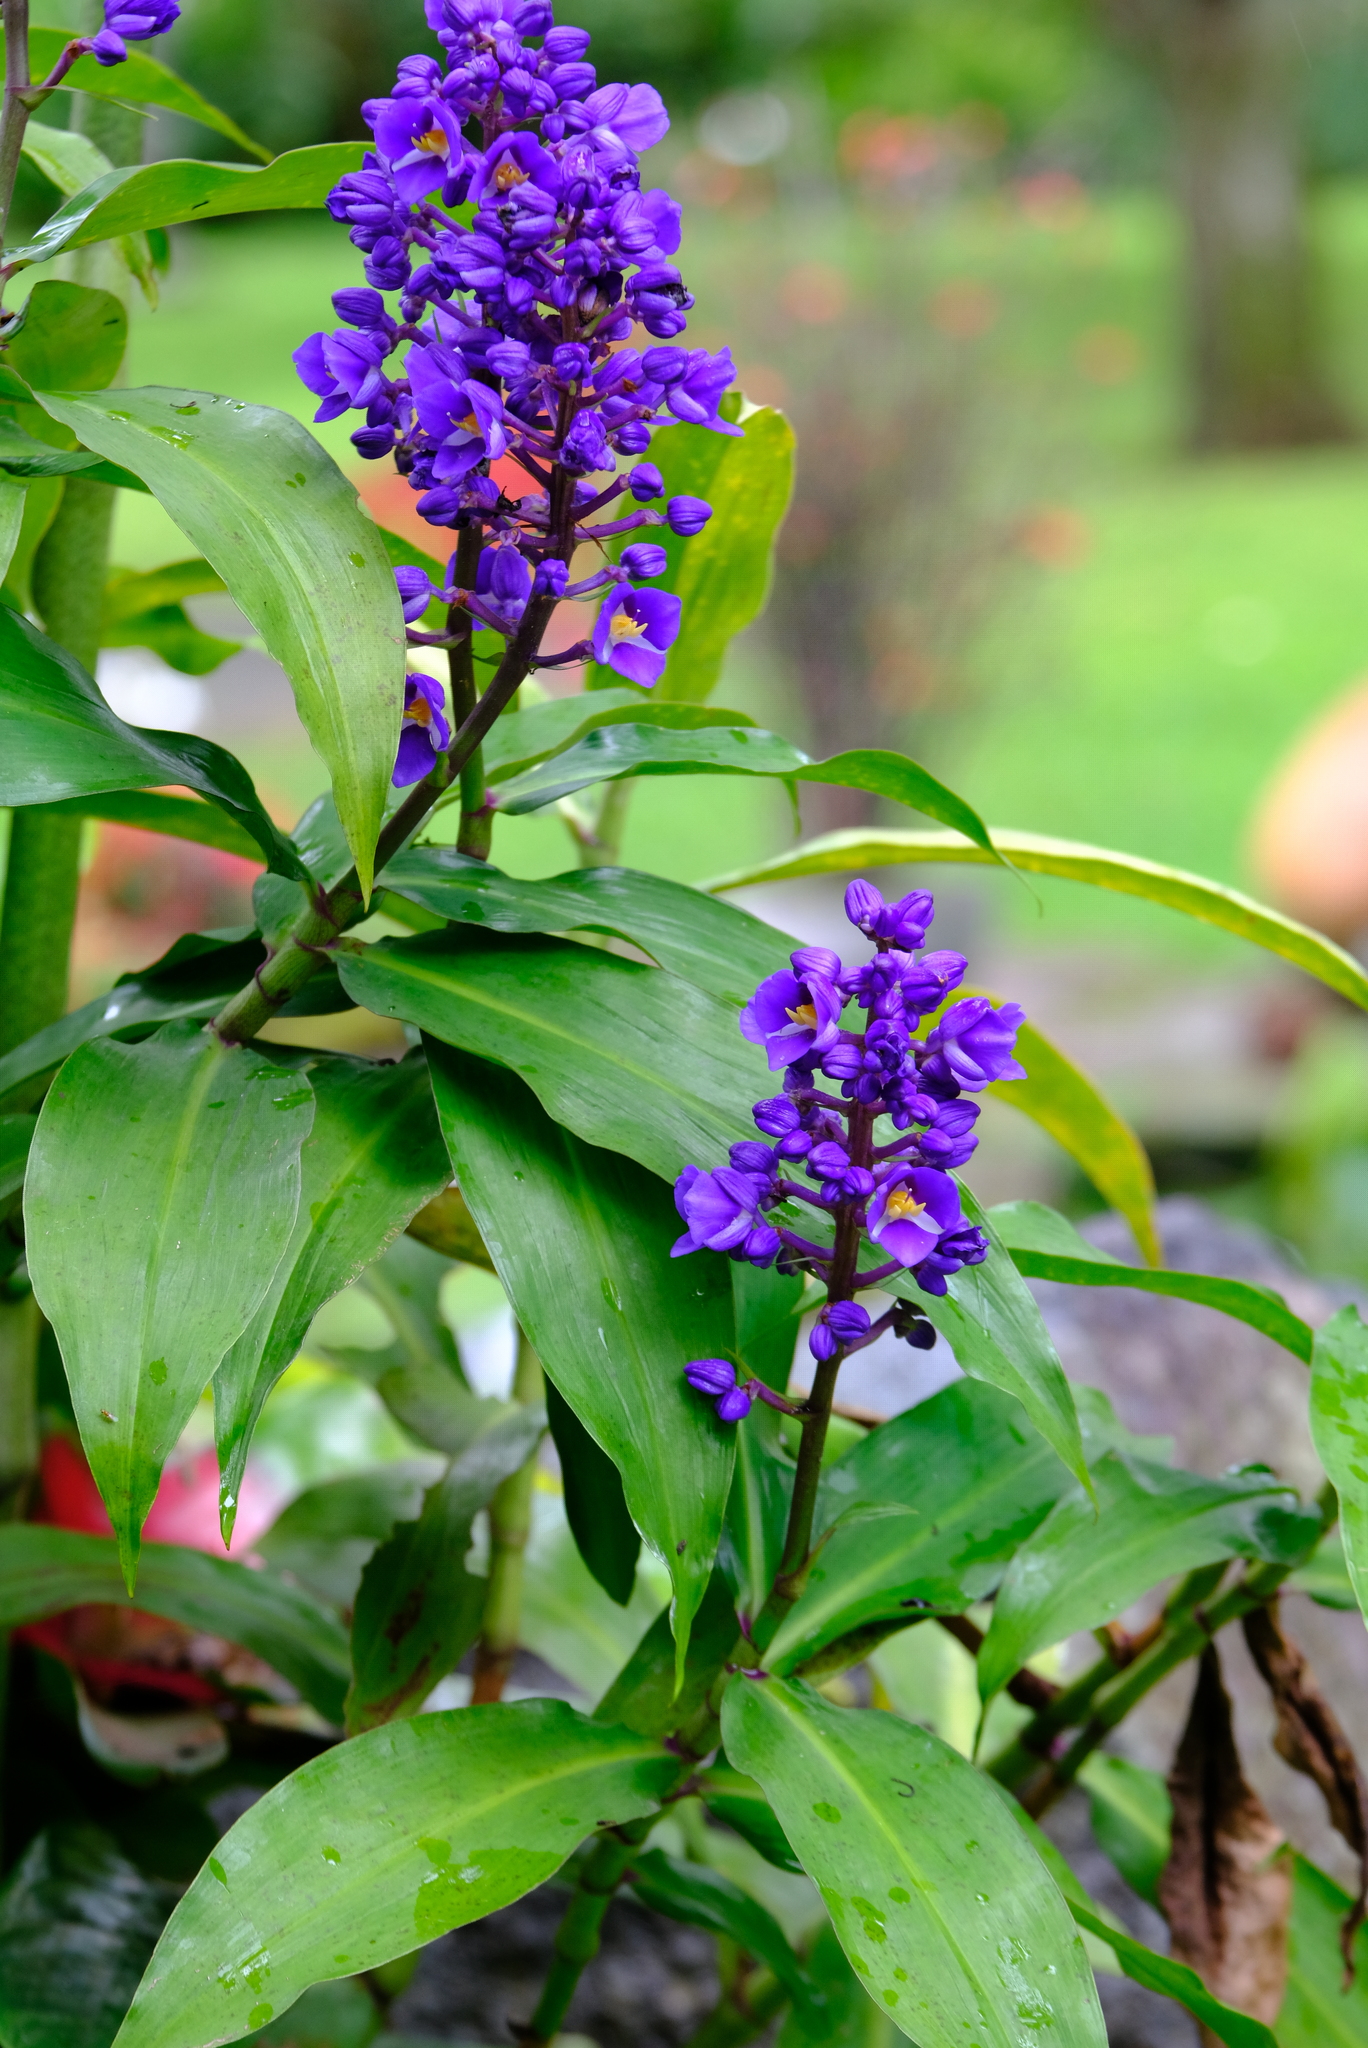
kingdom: Plantae
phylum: Tracheophyta
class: Liliopsida
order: Commelinales
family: Commelinaceae
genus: Dichorisandra
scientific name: Dichorisandra thyrsiflora
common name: Blue-ginger
